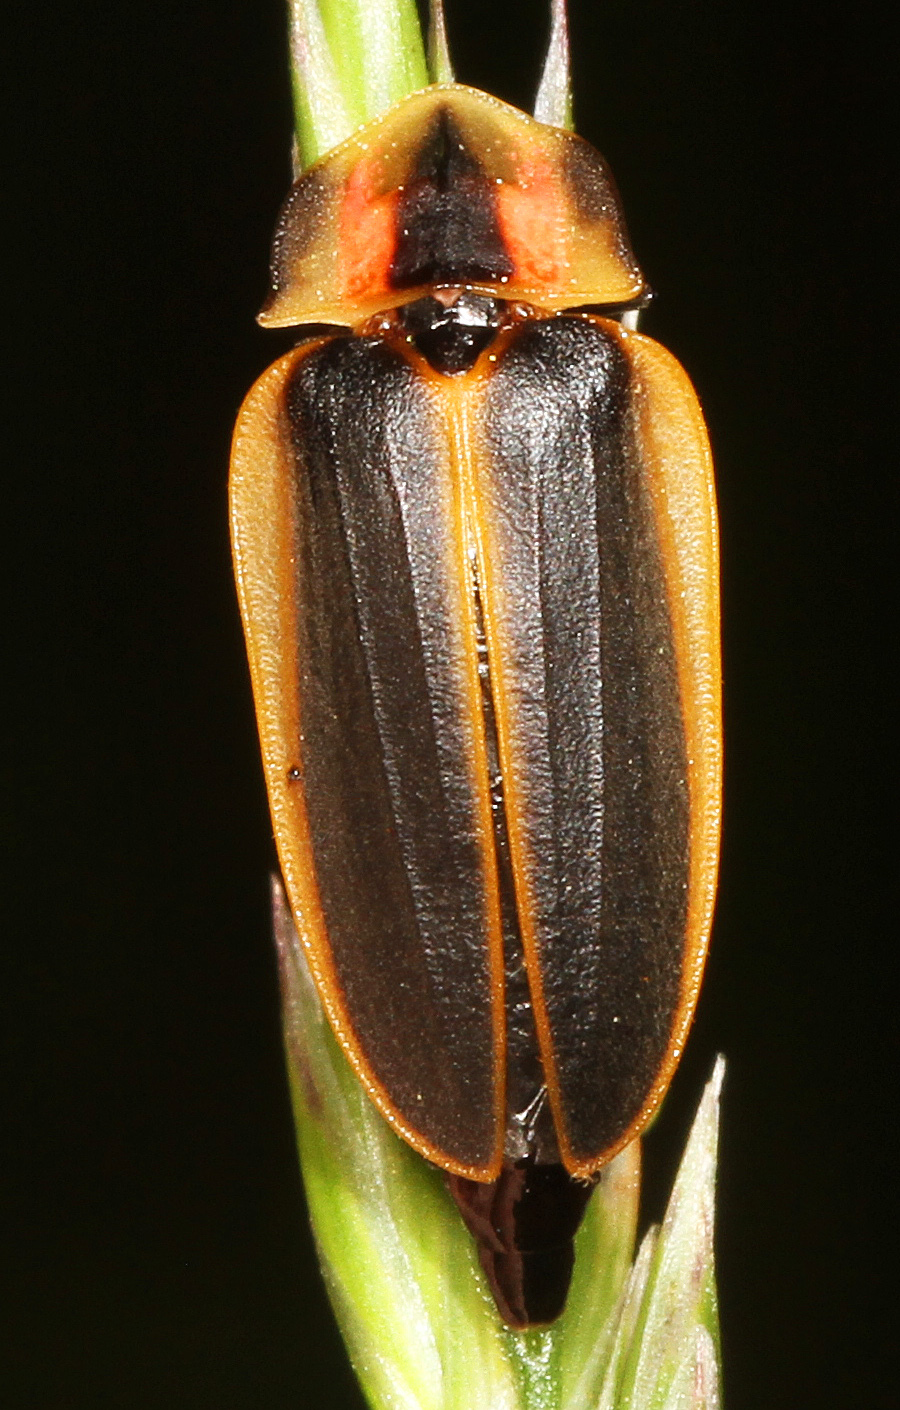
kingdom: Animalia
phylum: Arthropoda
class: Insecta
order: Coleoptera
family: Lampyridae
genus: Pyractomena
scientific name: Pyractomena angulata
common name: Candle firefly
